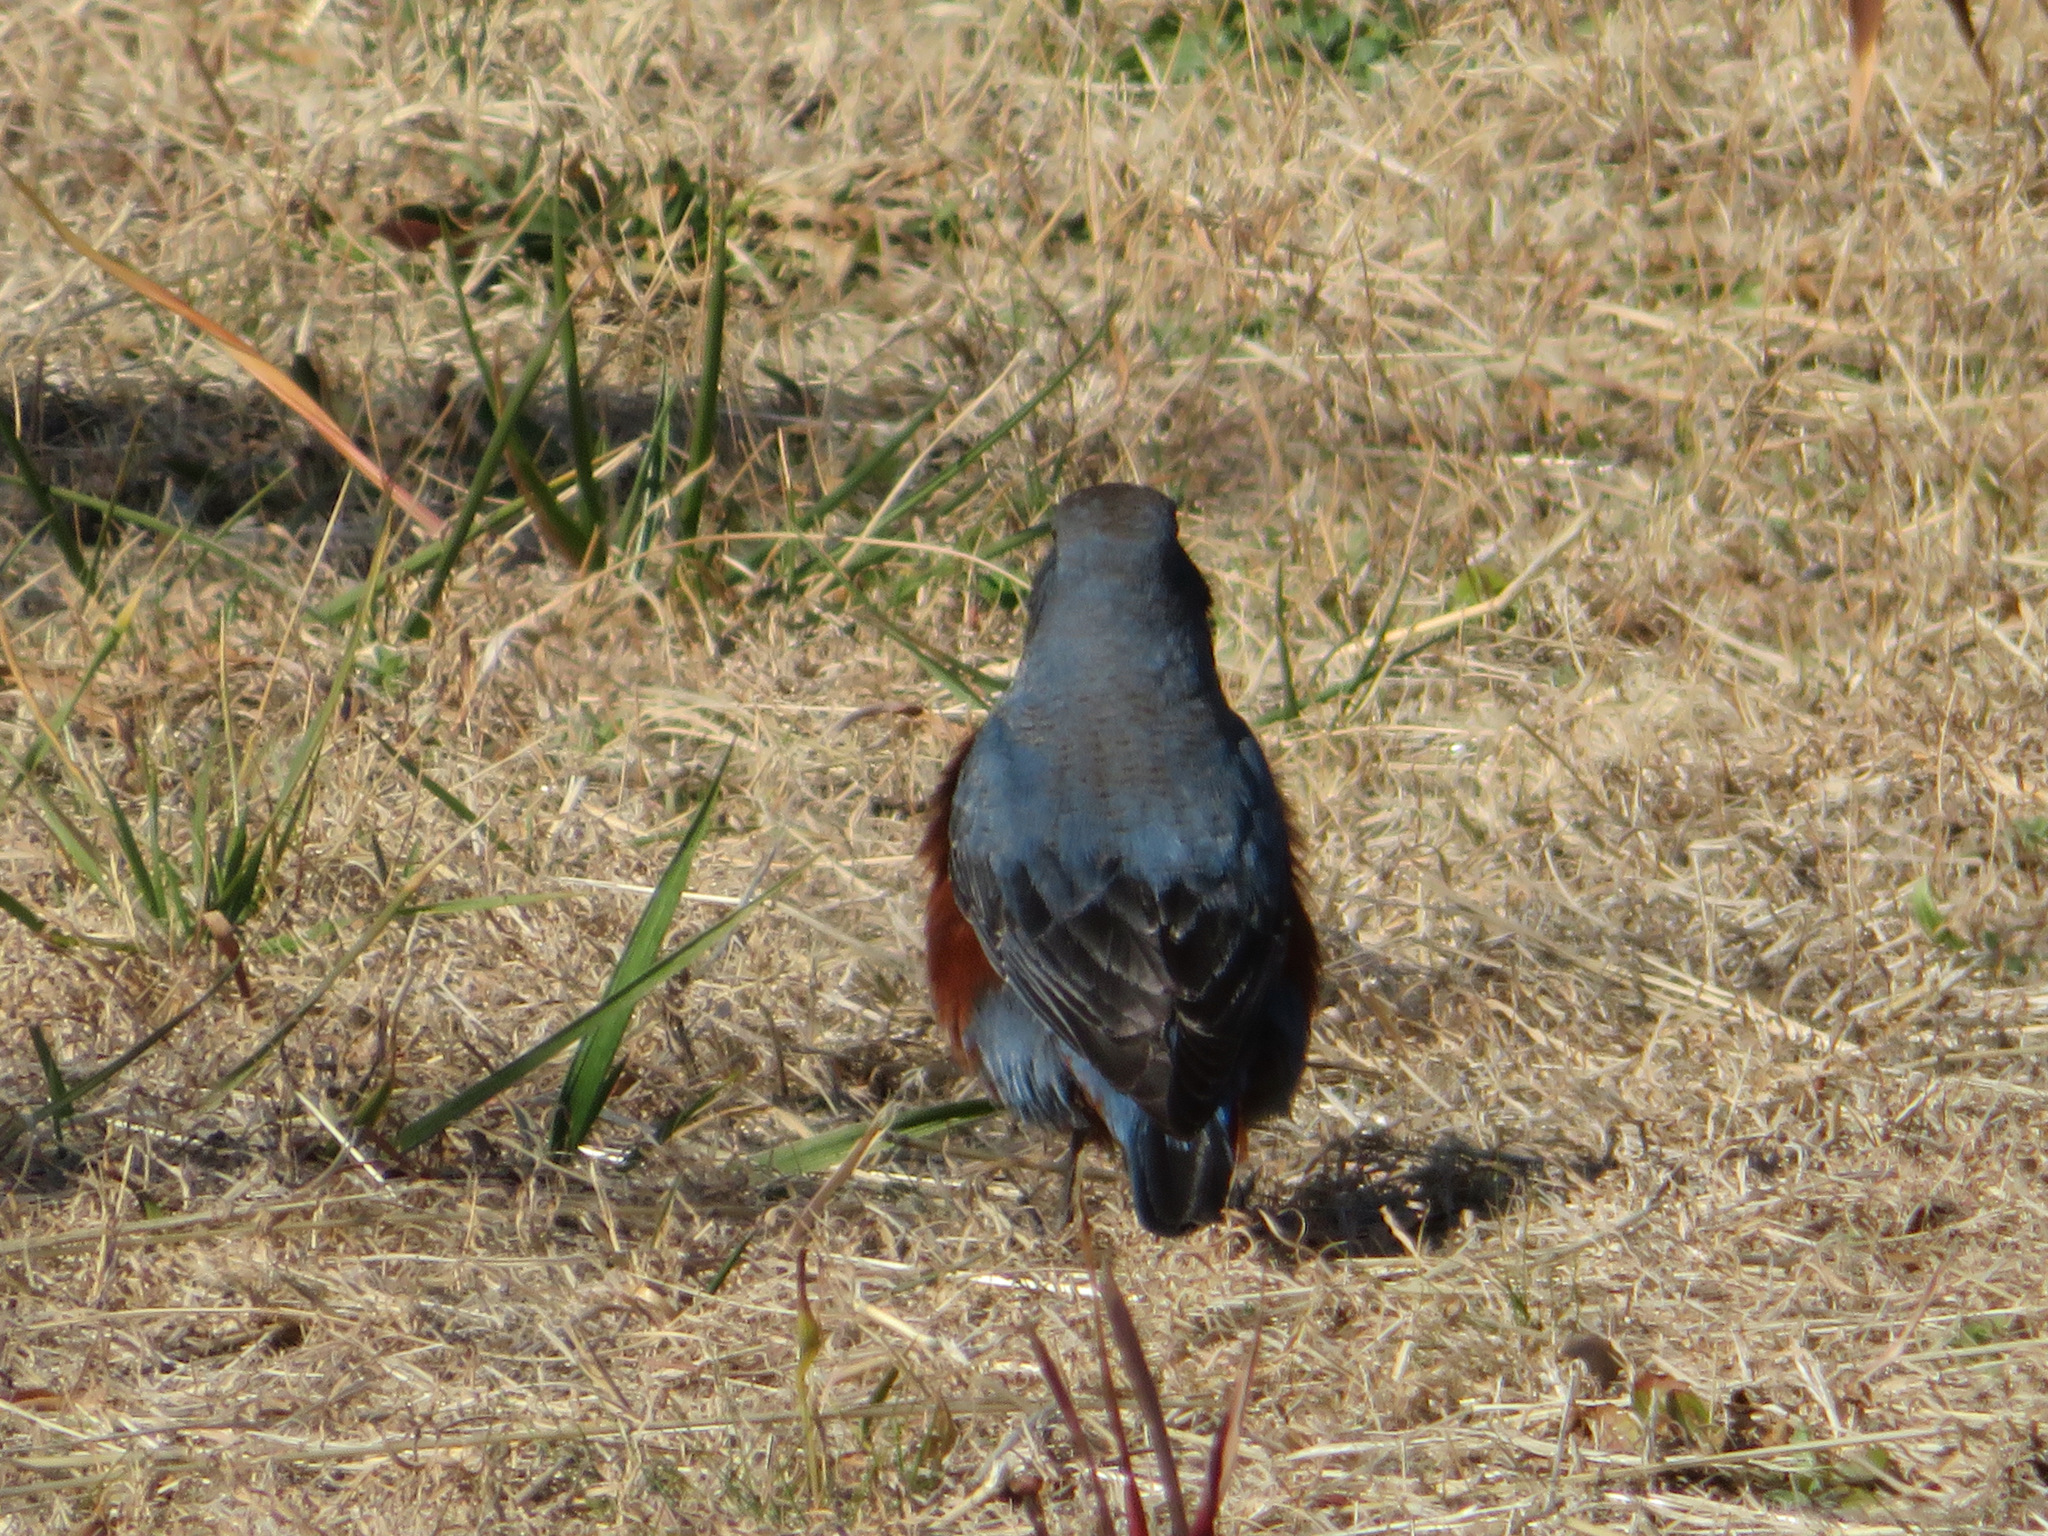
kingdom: Animalia
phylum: Chordata
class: Aves
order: Passeriformes
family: Muscicapidae
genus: Monticola
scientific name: Monticola solitarius
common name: Blue rock thrush
